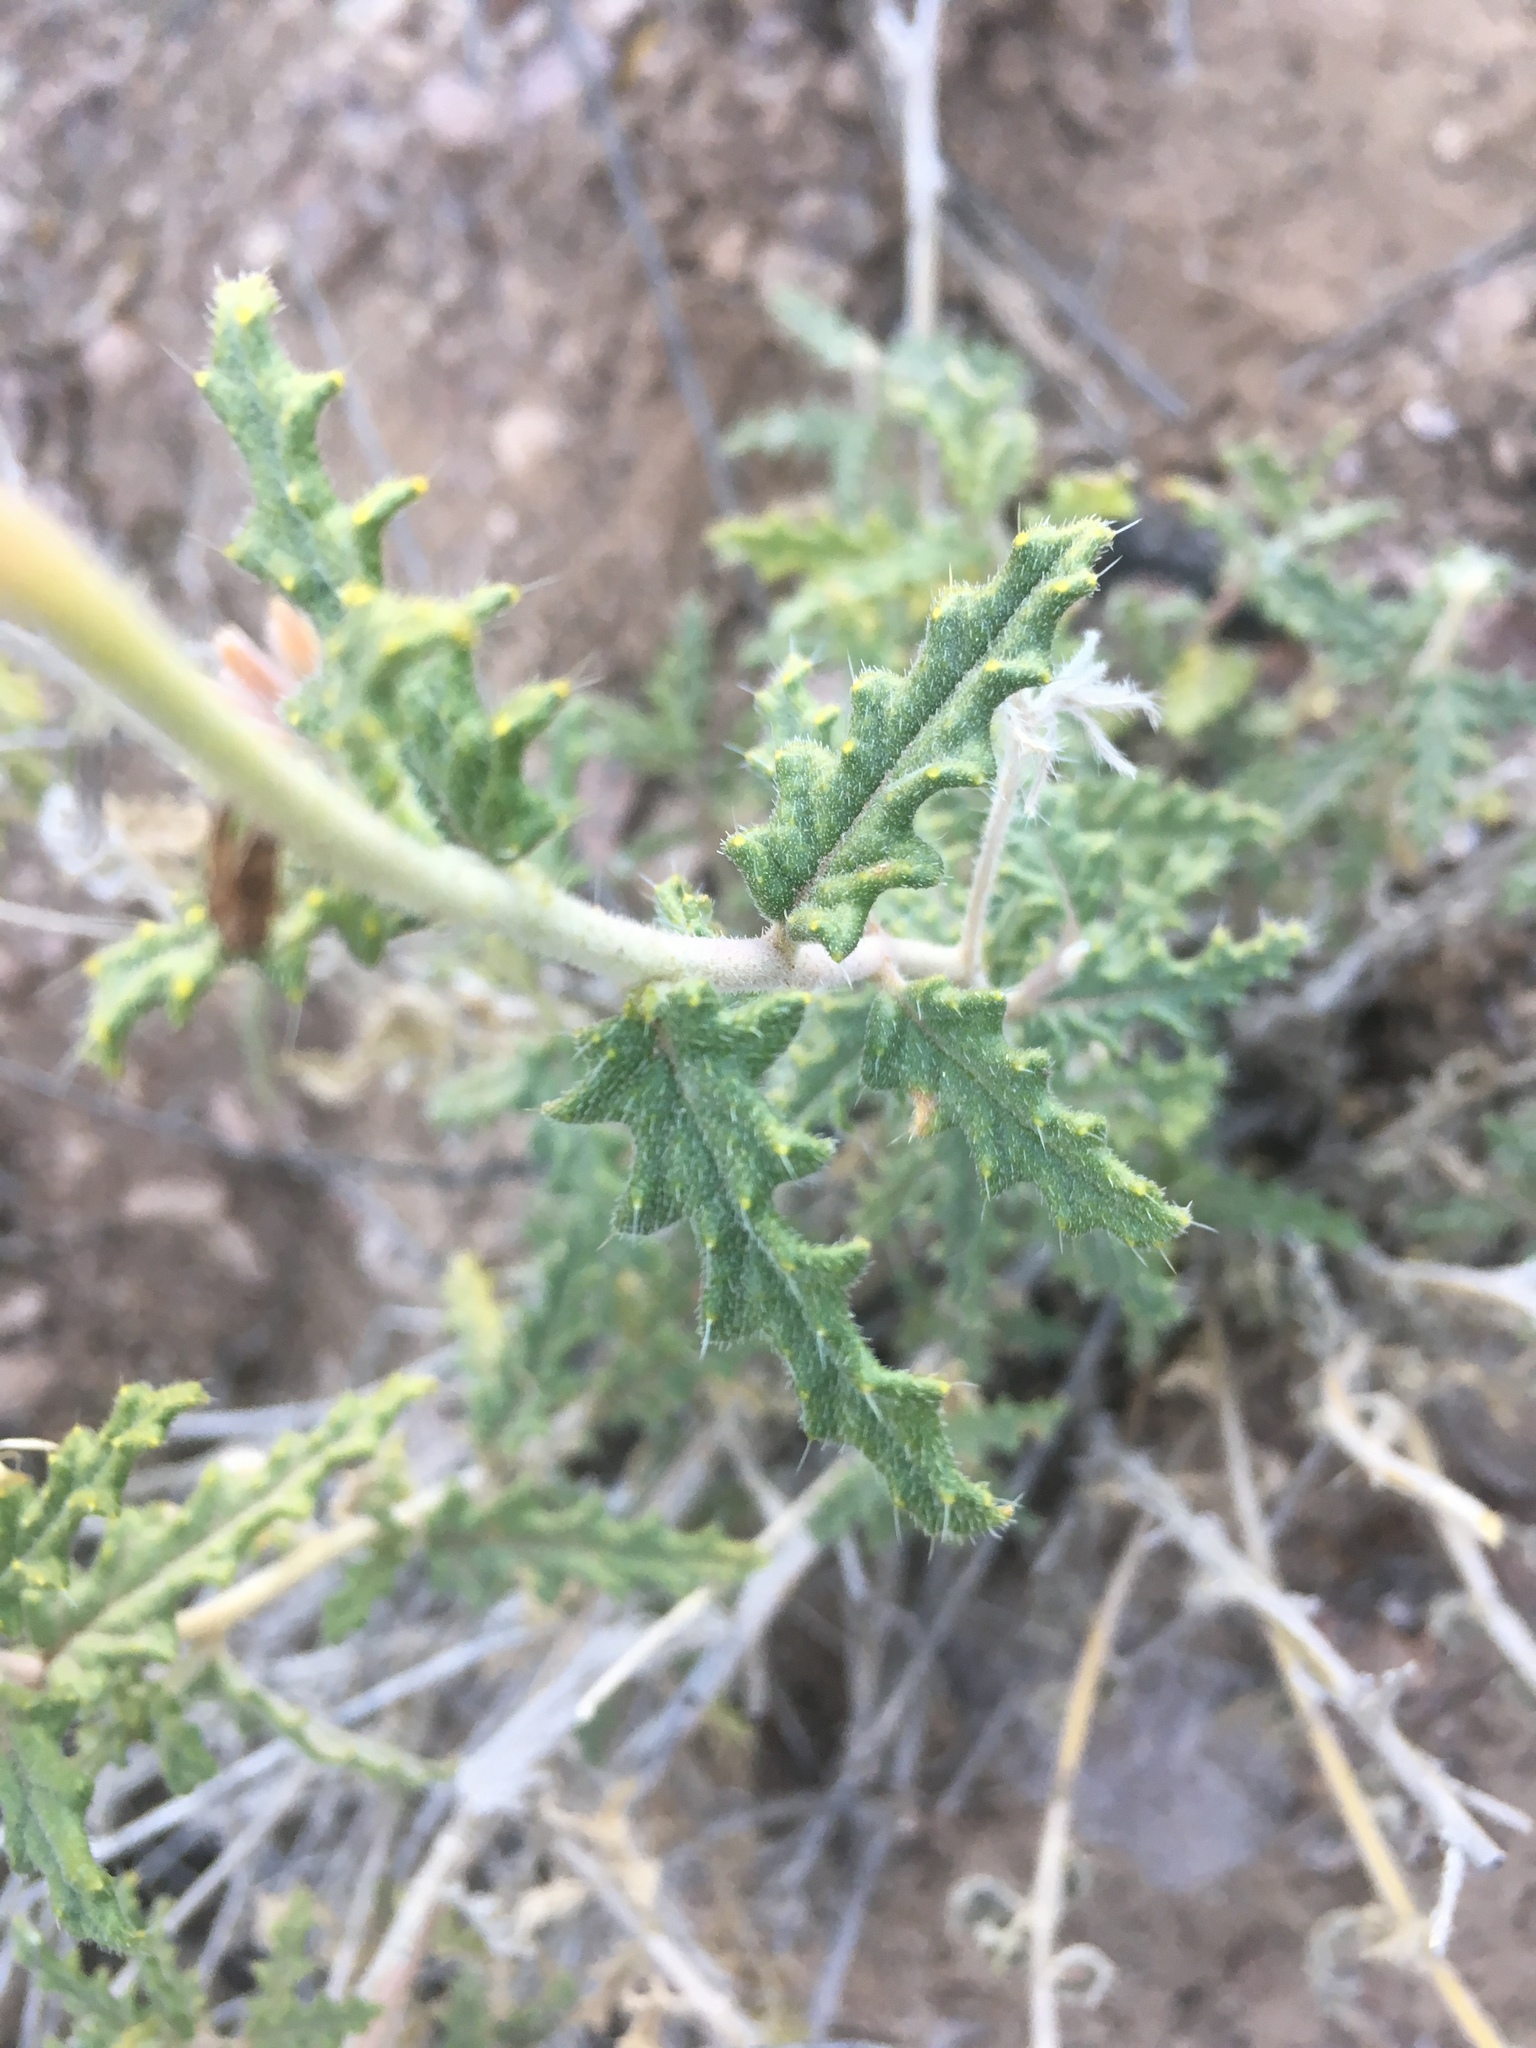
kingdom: Plantae
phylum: Tracheophyta
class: Magnoliopsida
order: Cornales
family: Loasaceae
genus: Cevallia
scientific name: Cevallia sinuata
